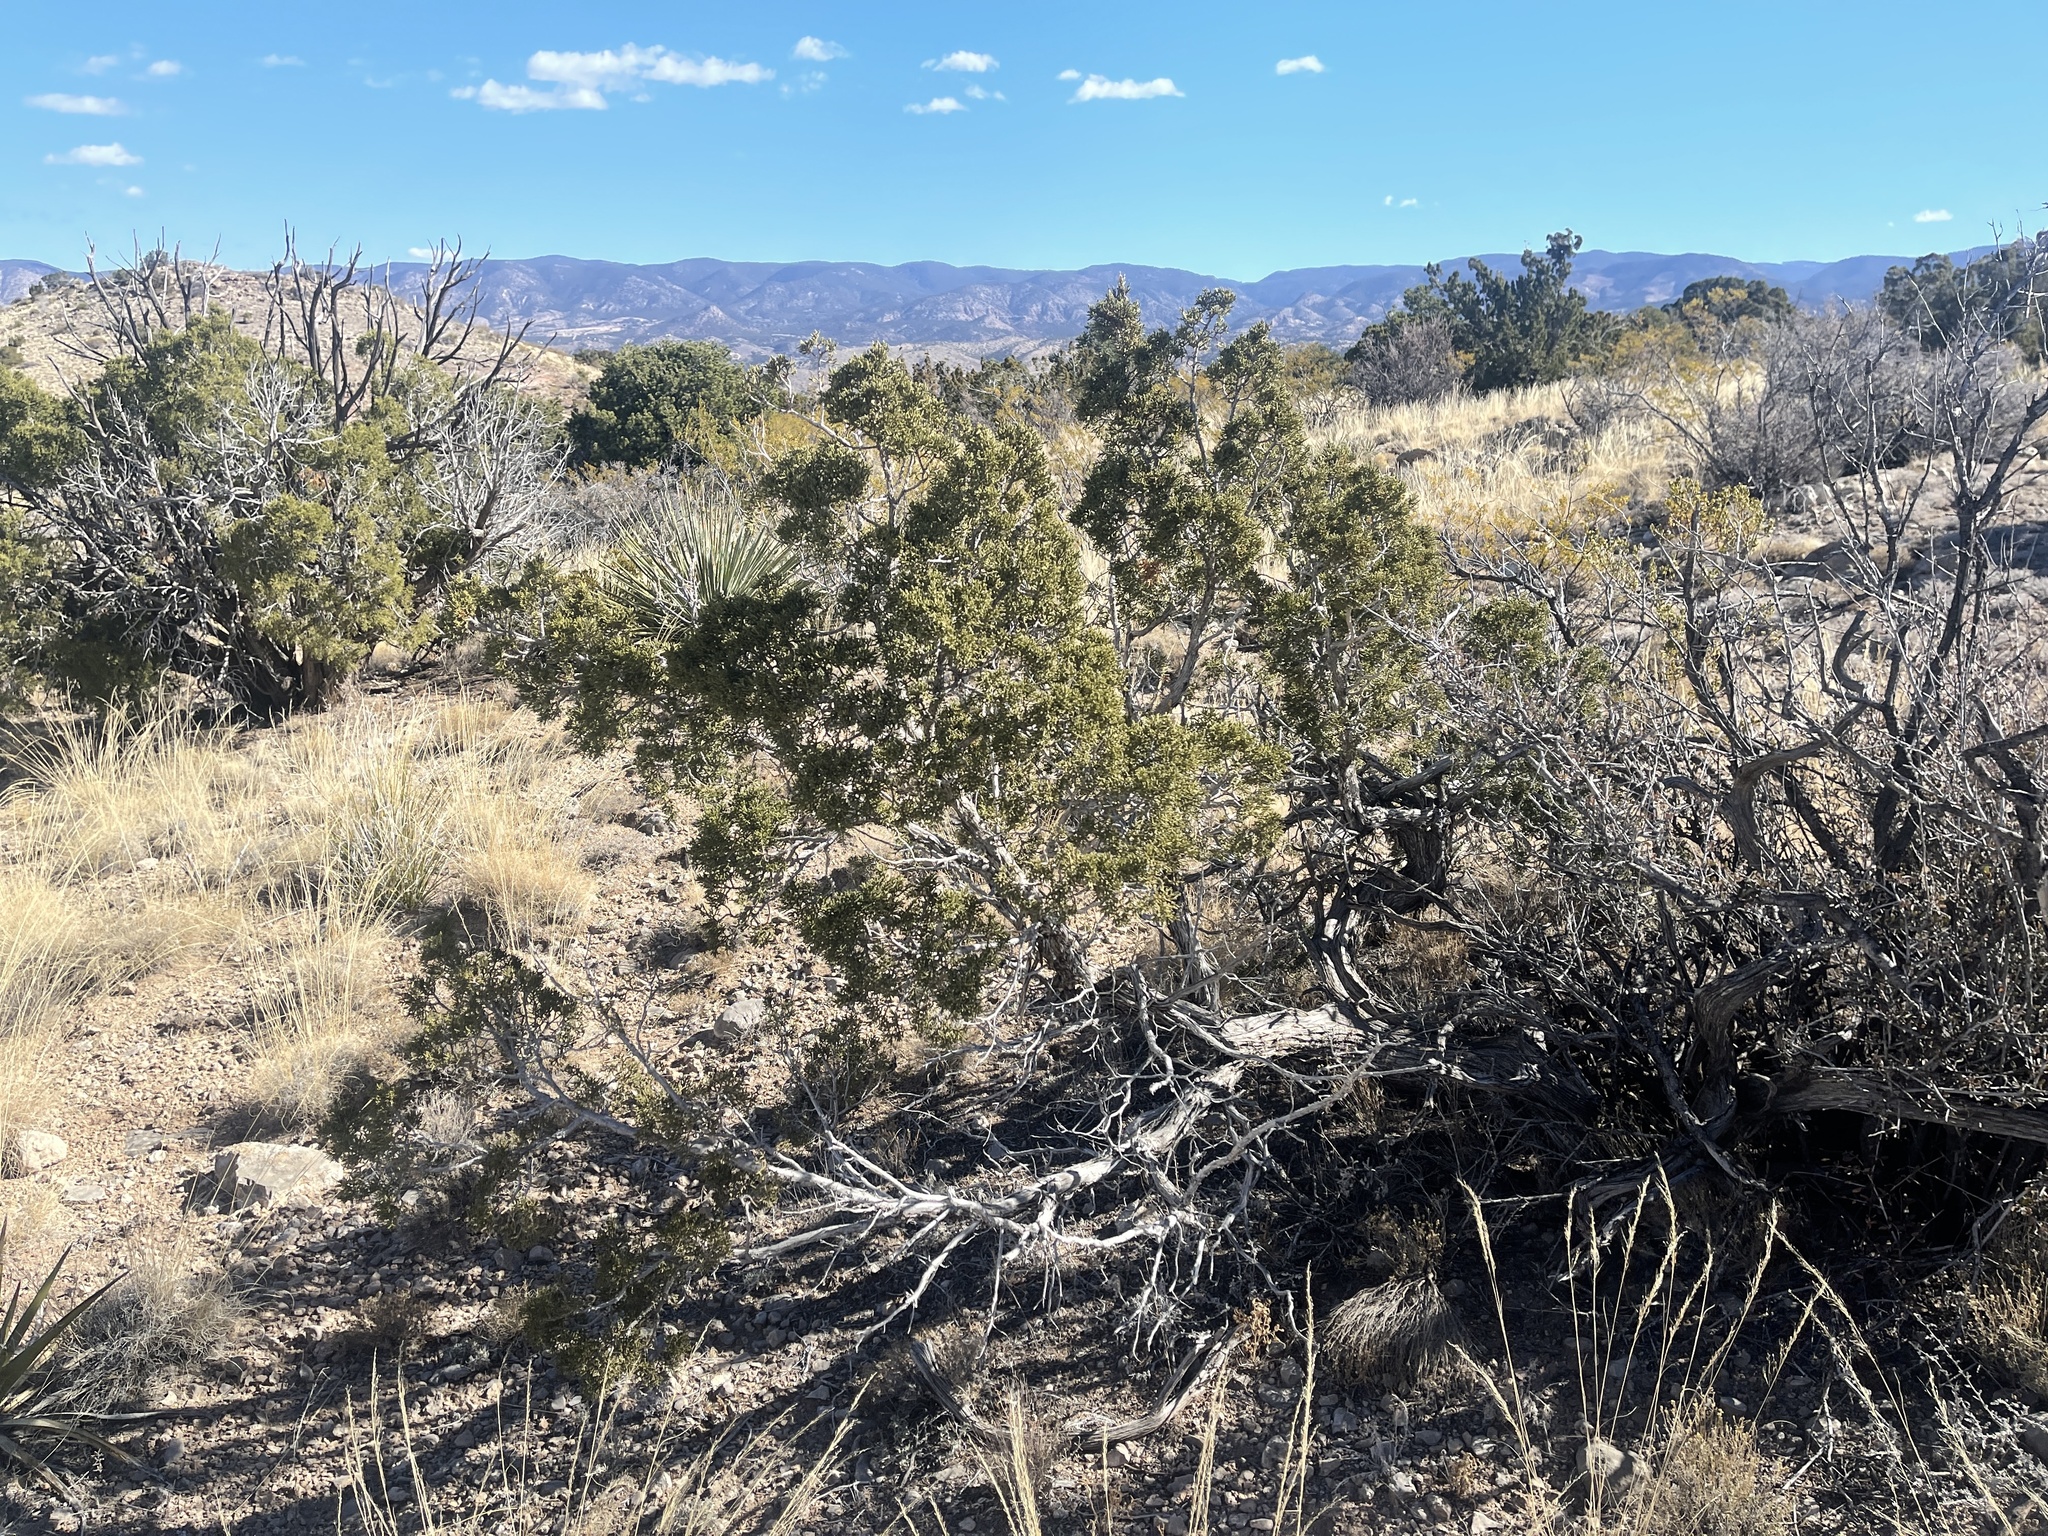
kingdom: Plantae
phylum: Tracheophyta
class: Pinopsida
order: Pinales
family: Cupressaceae
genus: Juniperus
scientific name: Juniperus monosperma
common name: One-seed juniper
